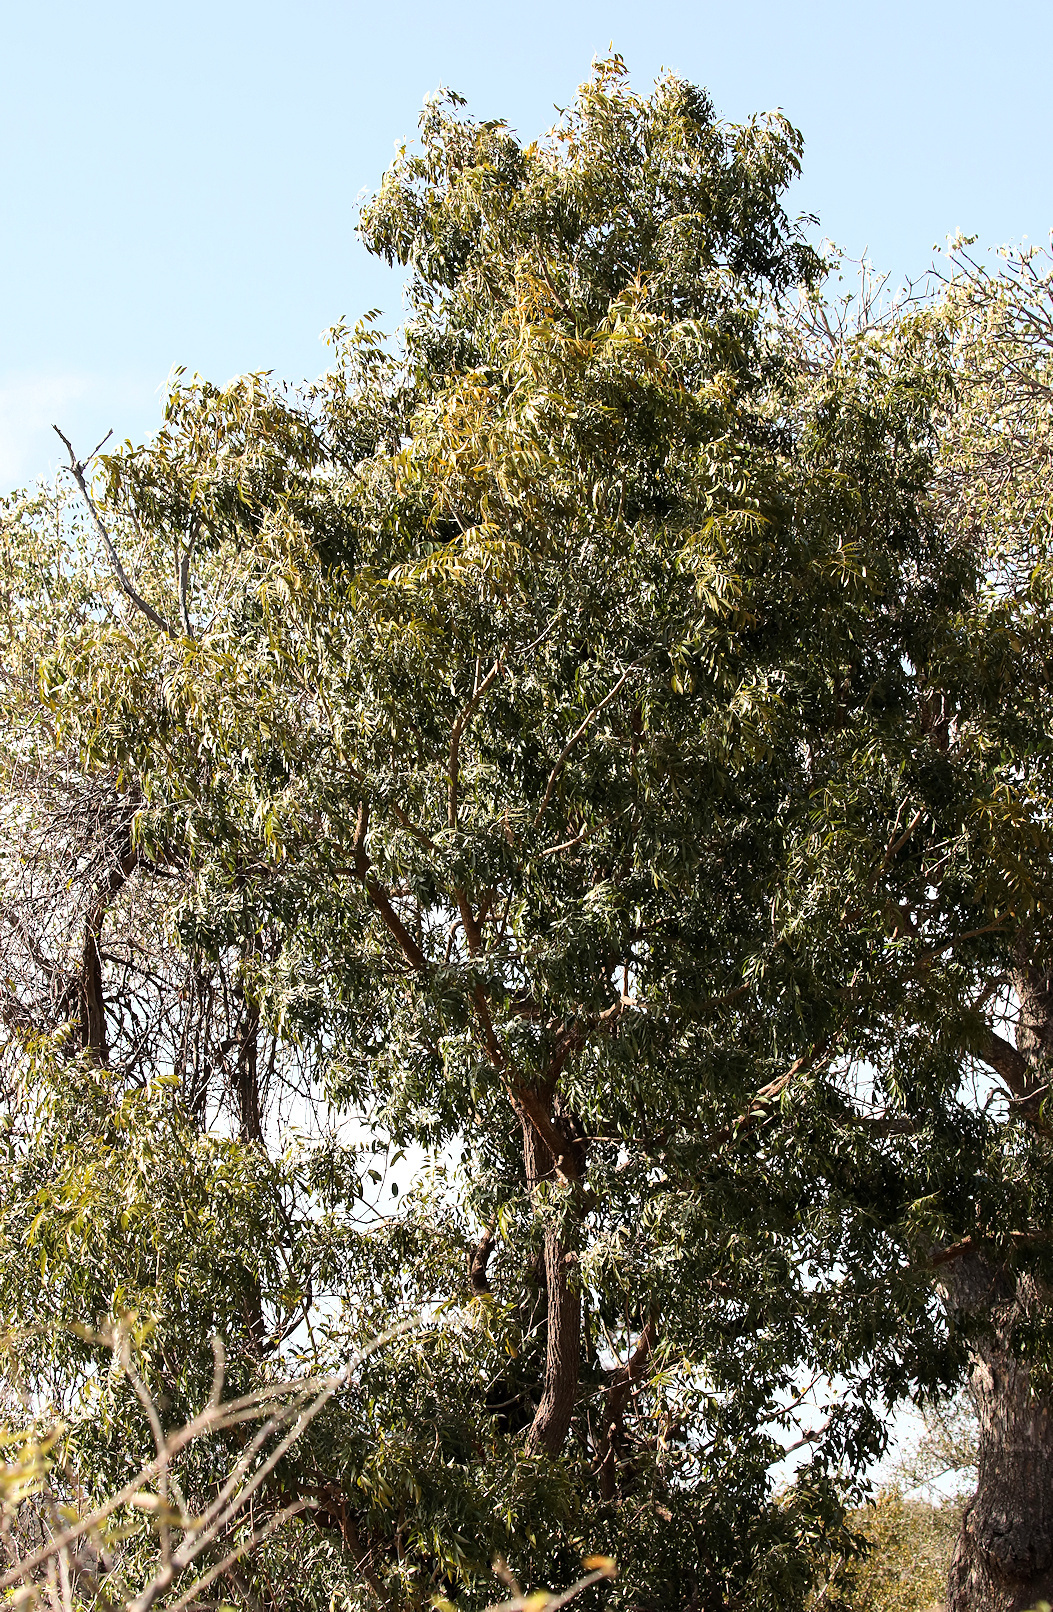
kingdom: Plantae
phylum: Tracheophyta
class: Magnoliopsida
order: Fabales
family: Fabaceae
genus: Bolusanthus
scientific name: Bolusanthus speciosus
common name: Tree wisteria
